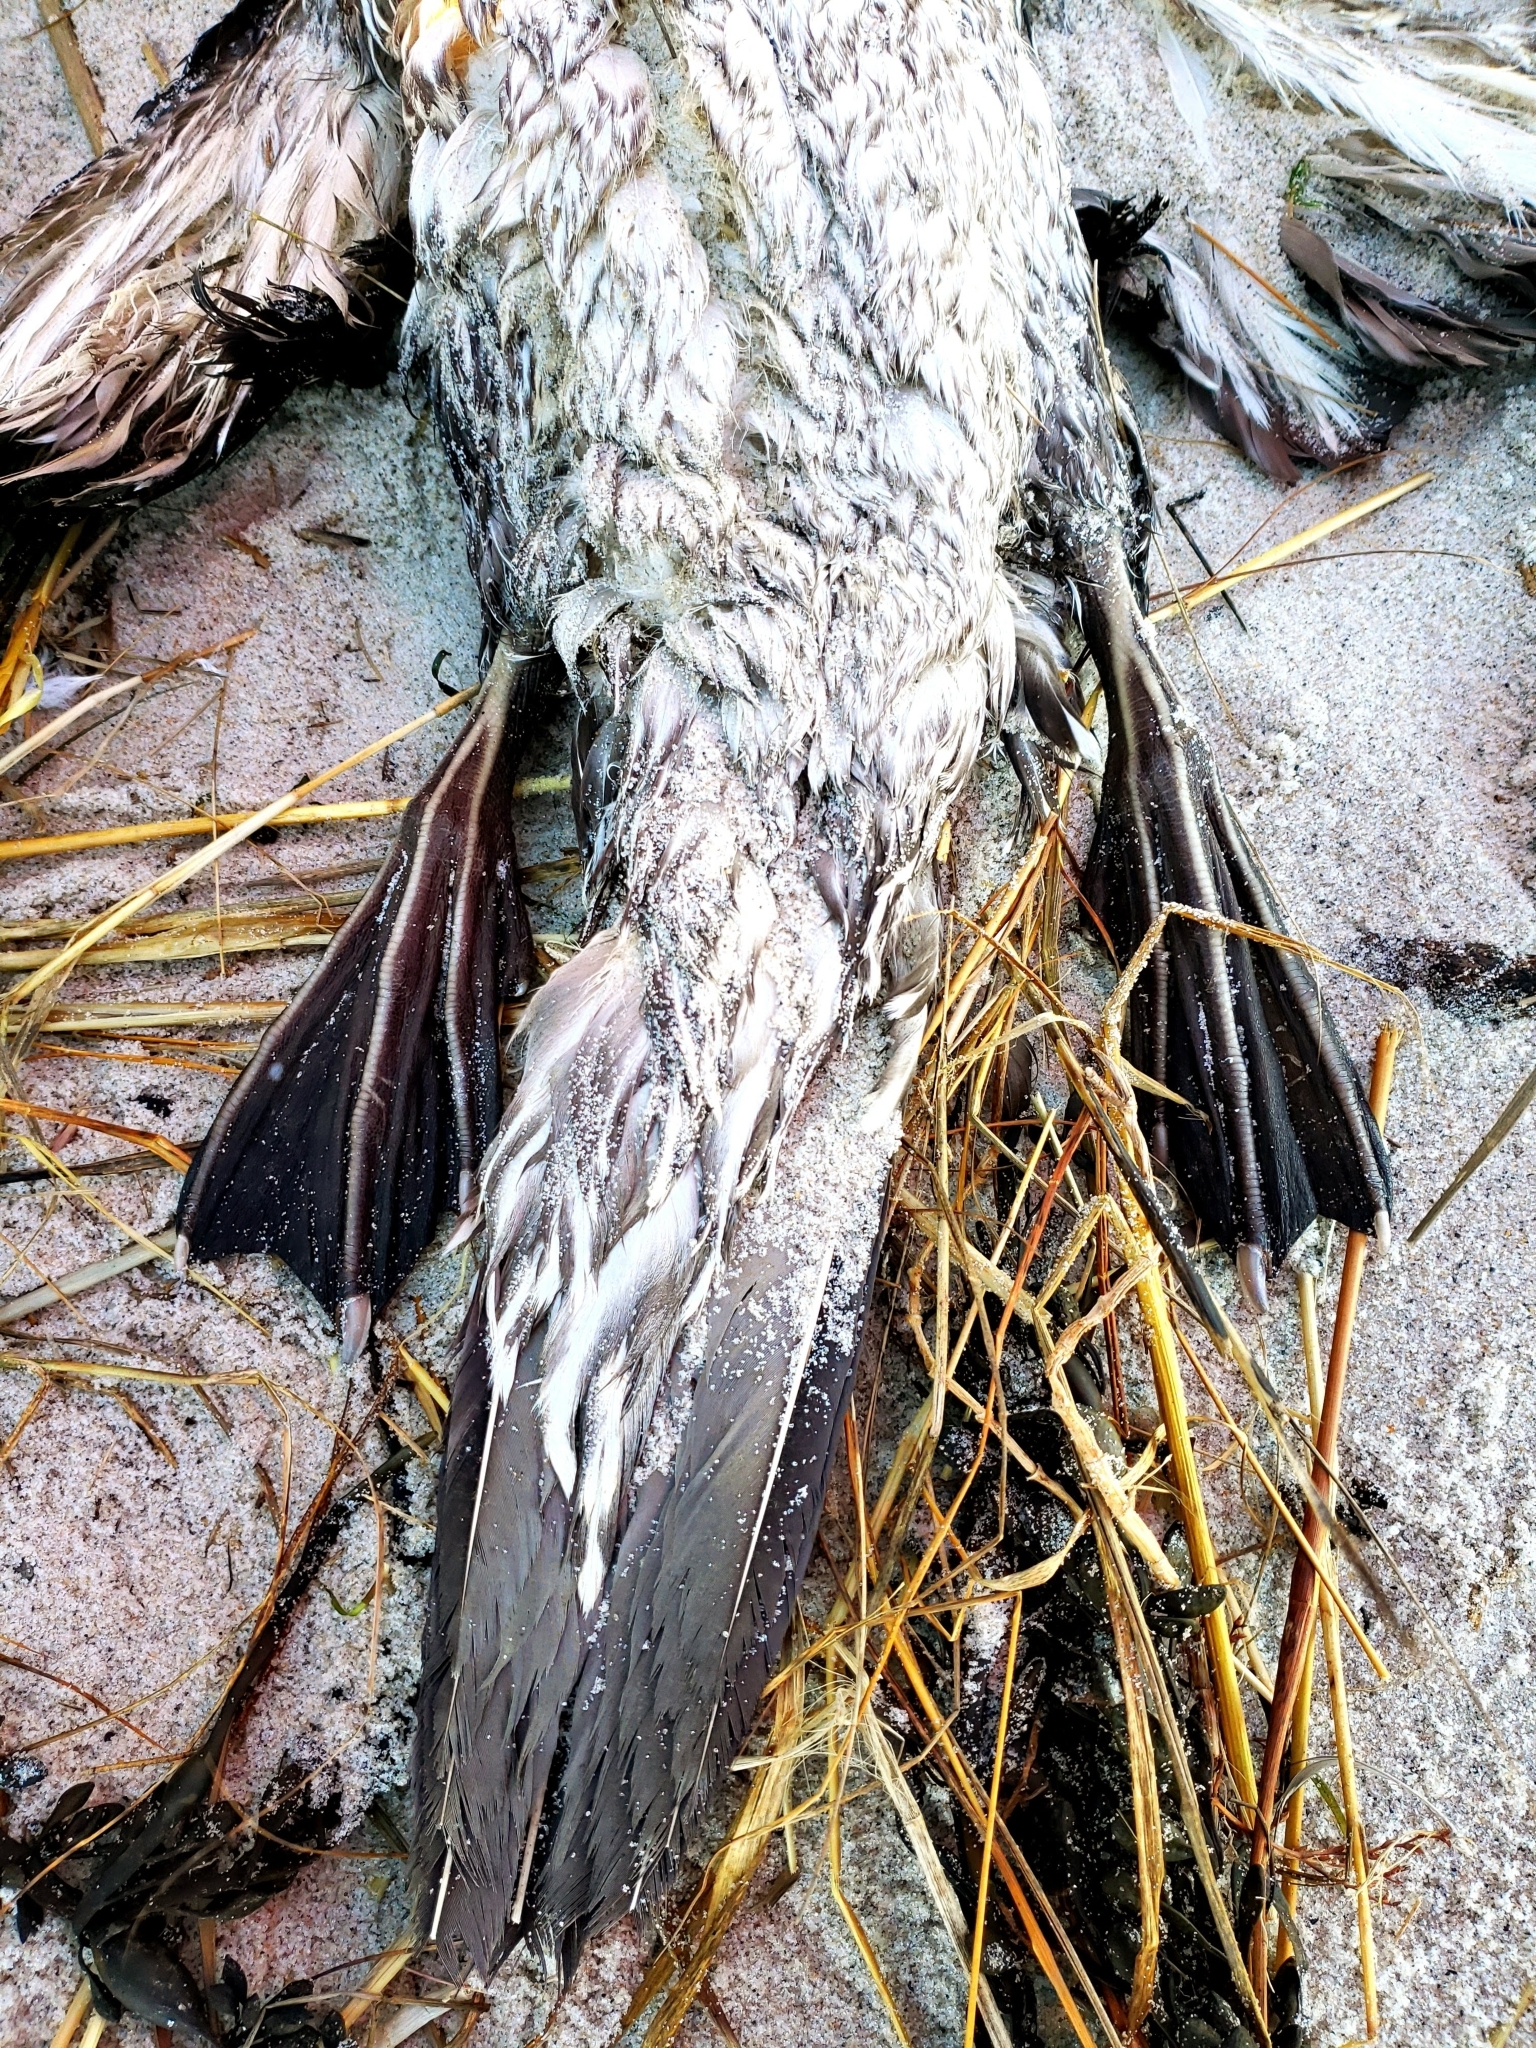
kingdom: Animalia
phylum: Chordata
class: Aves
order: Suliformes
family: Sulidae
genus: Morus
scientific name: Morus bassanus
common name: Northern gannet
